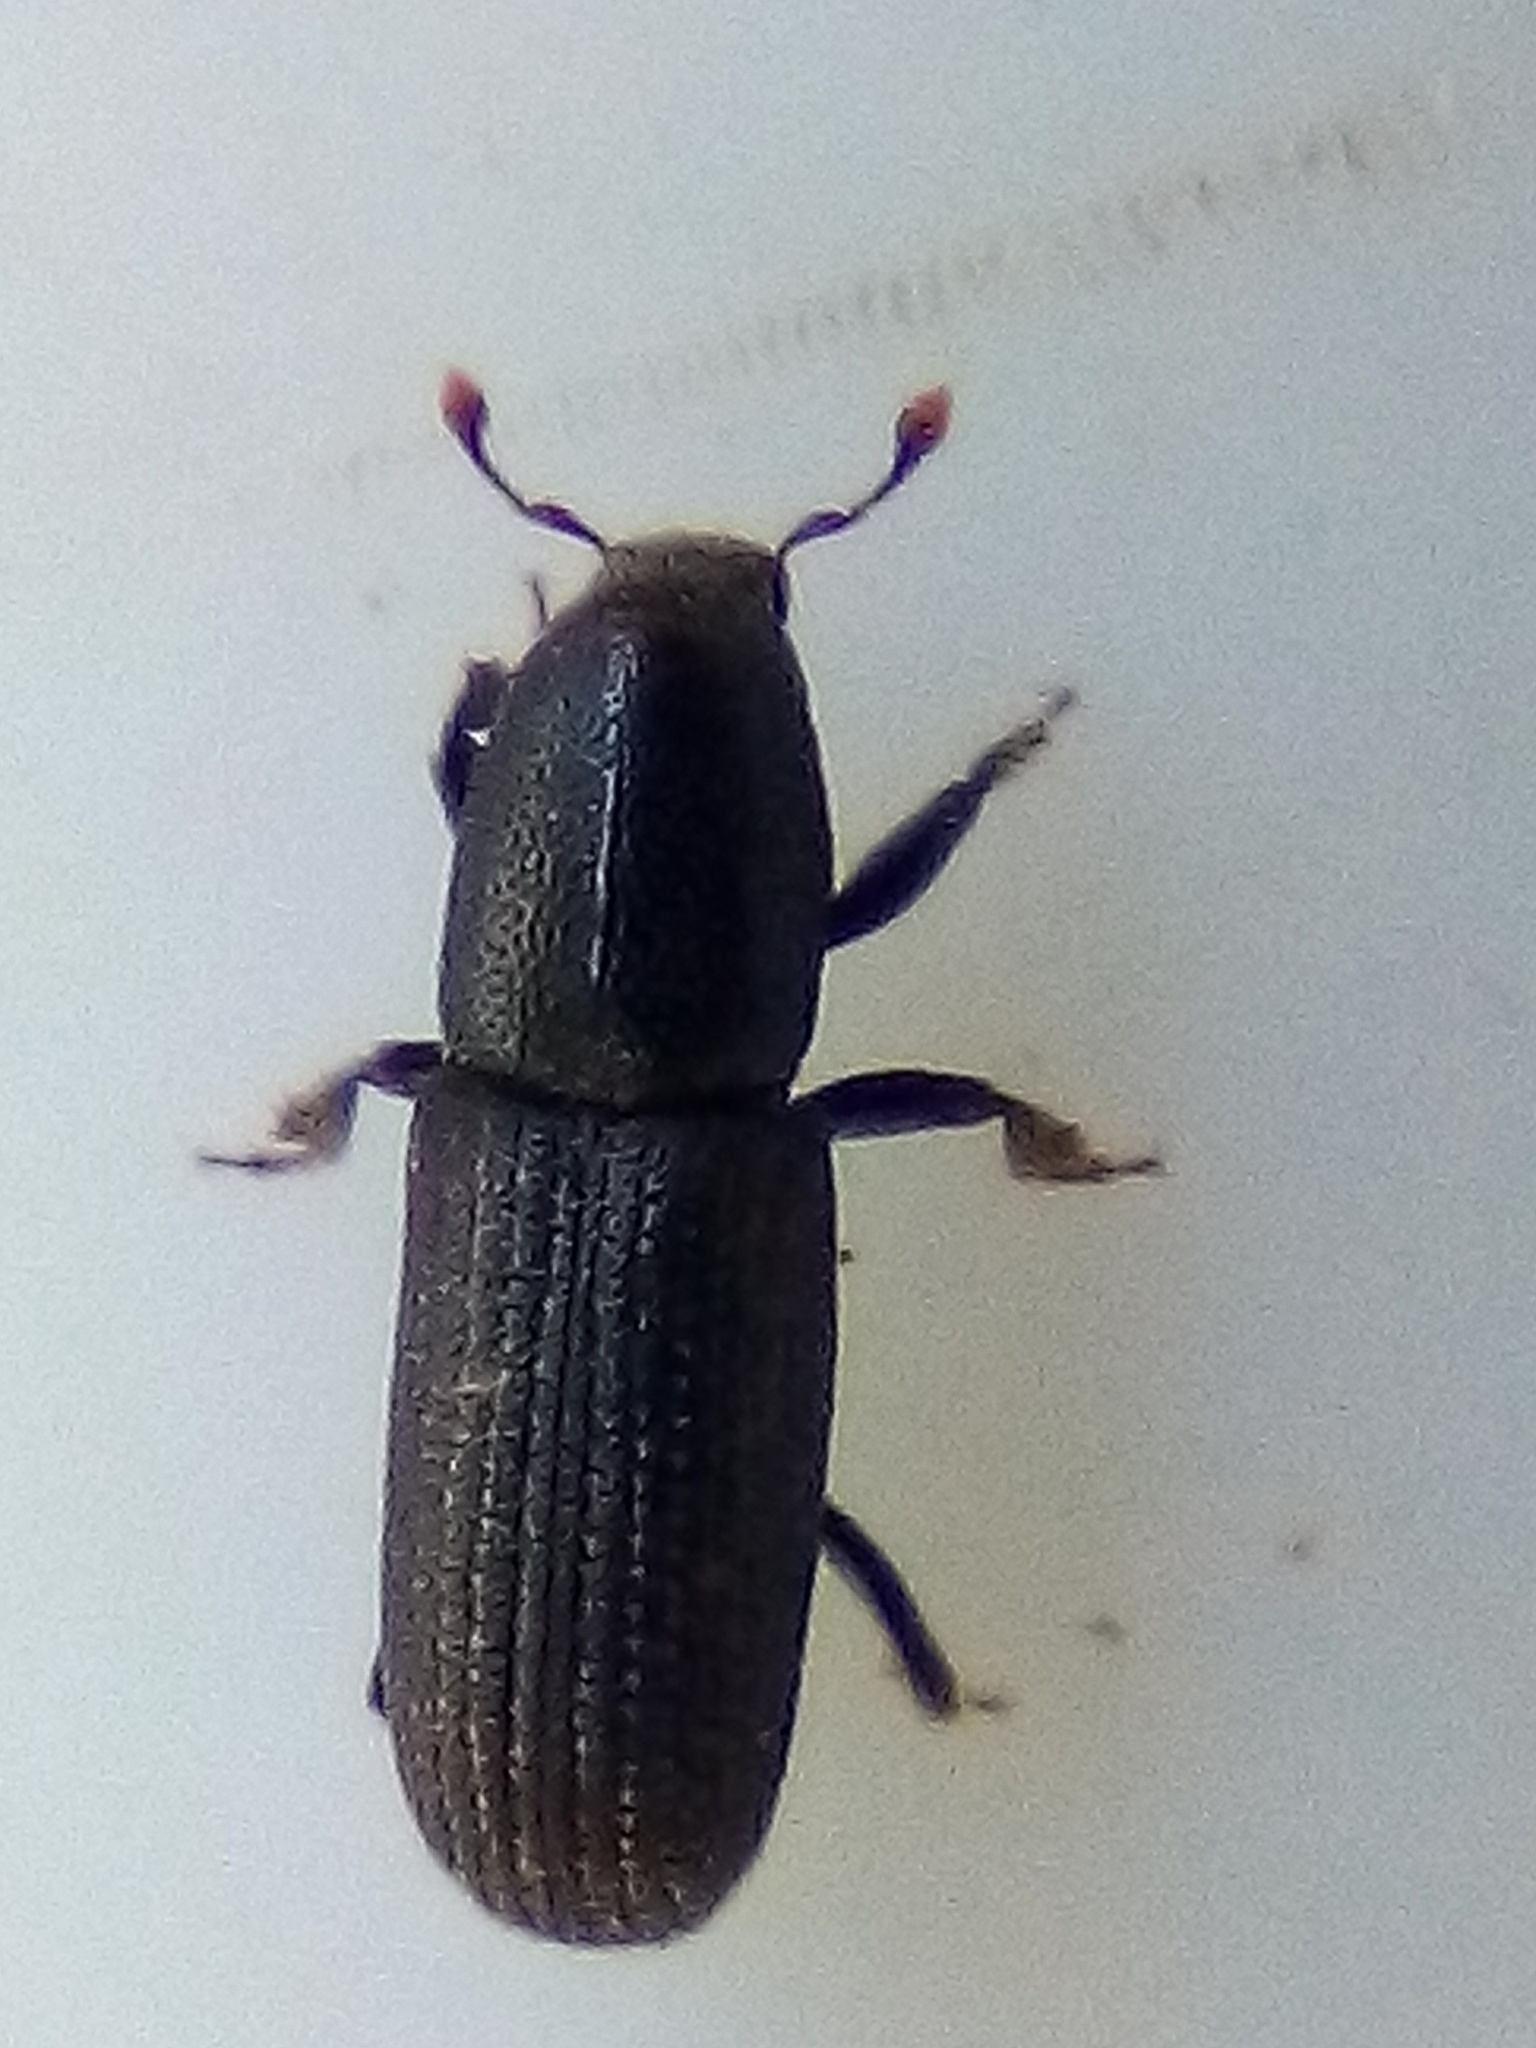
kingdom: Animalia
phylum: Arthropoda
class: Insecta
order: Coleoptera
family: Curculionidae
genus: Hylastes
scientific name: Hylastes ater
